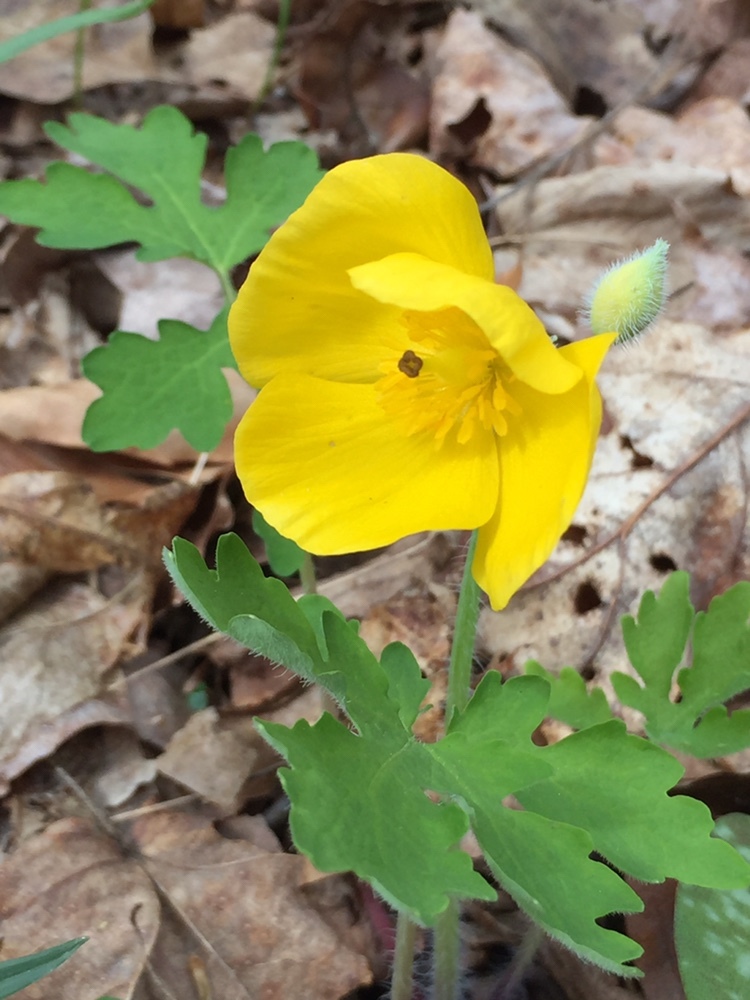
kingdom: Plantae
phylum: Tracheophyta
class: Magnoliopsida
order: Ranunculales
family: Papaveraceae
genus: Stylophorum
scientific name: Stylophorum diphyllum
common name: Celandine poppy
